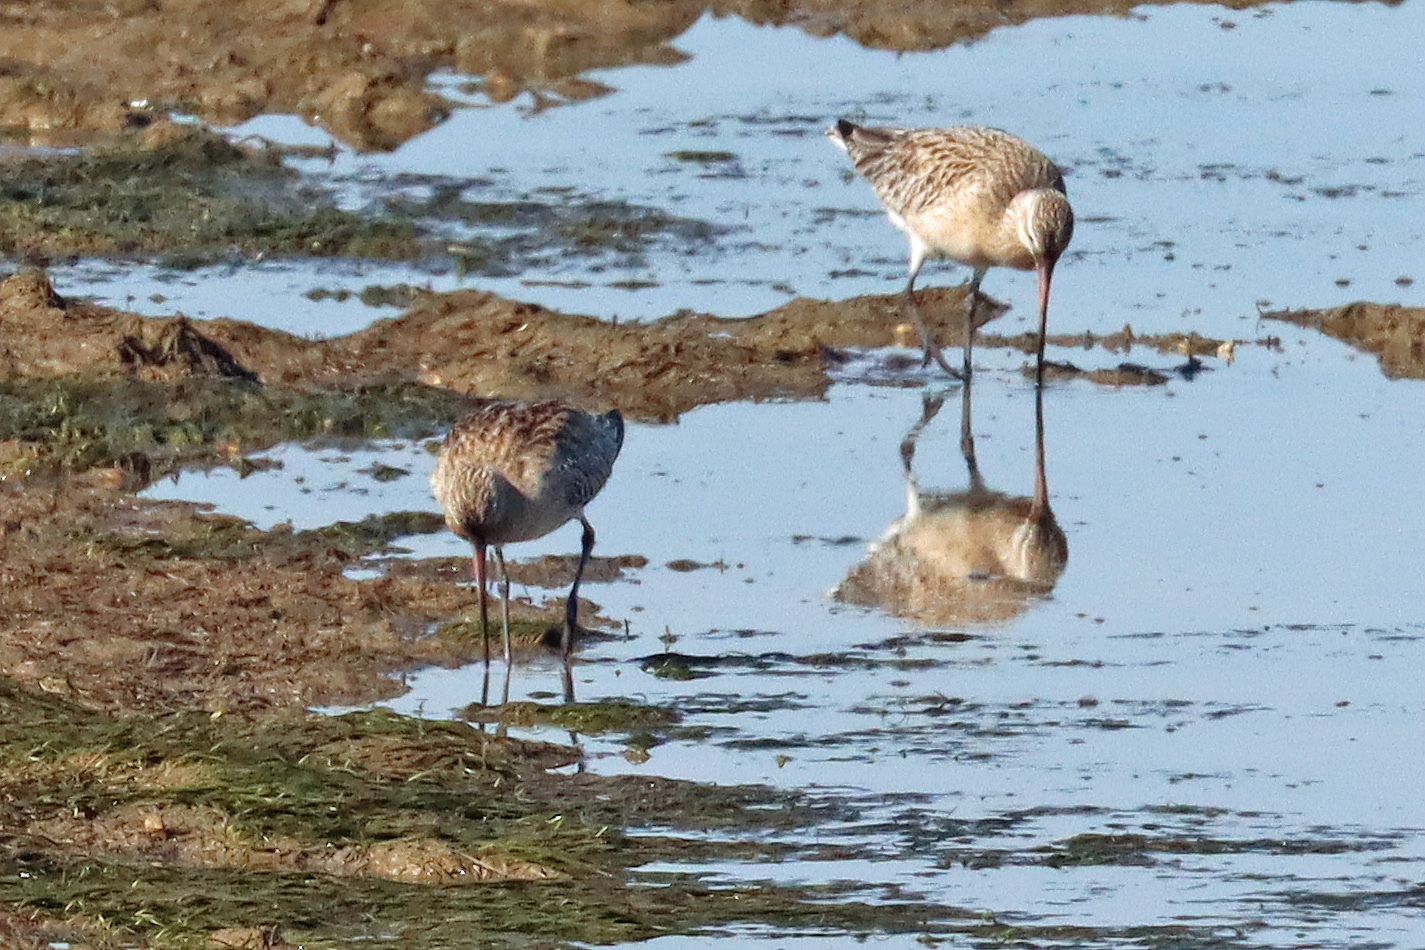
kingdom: Animalia
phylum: Chordata
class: Aves
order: Charadriiformes
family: Scolopacidae
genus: Limosa
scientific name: Limosa lapponica
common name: Bar-tailed godwit
